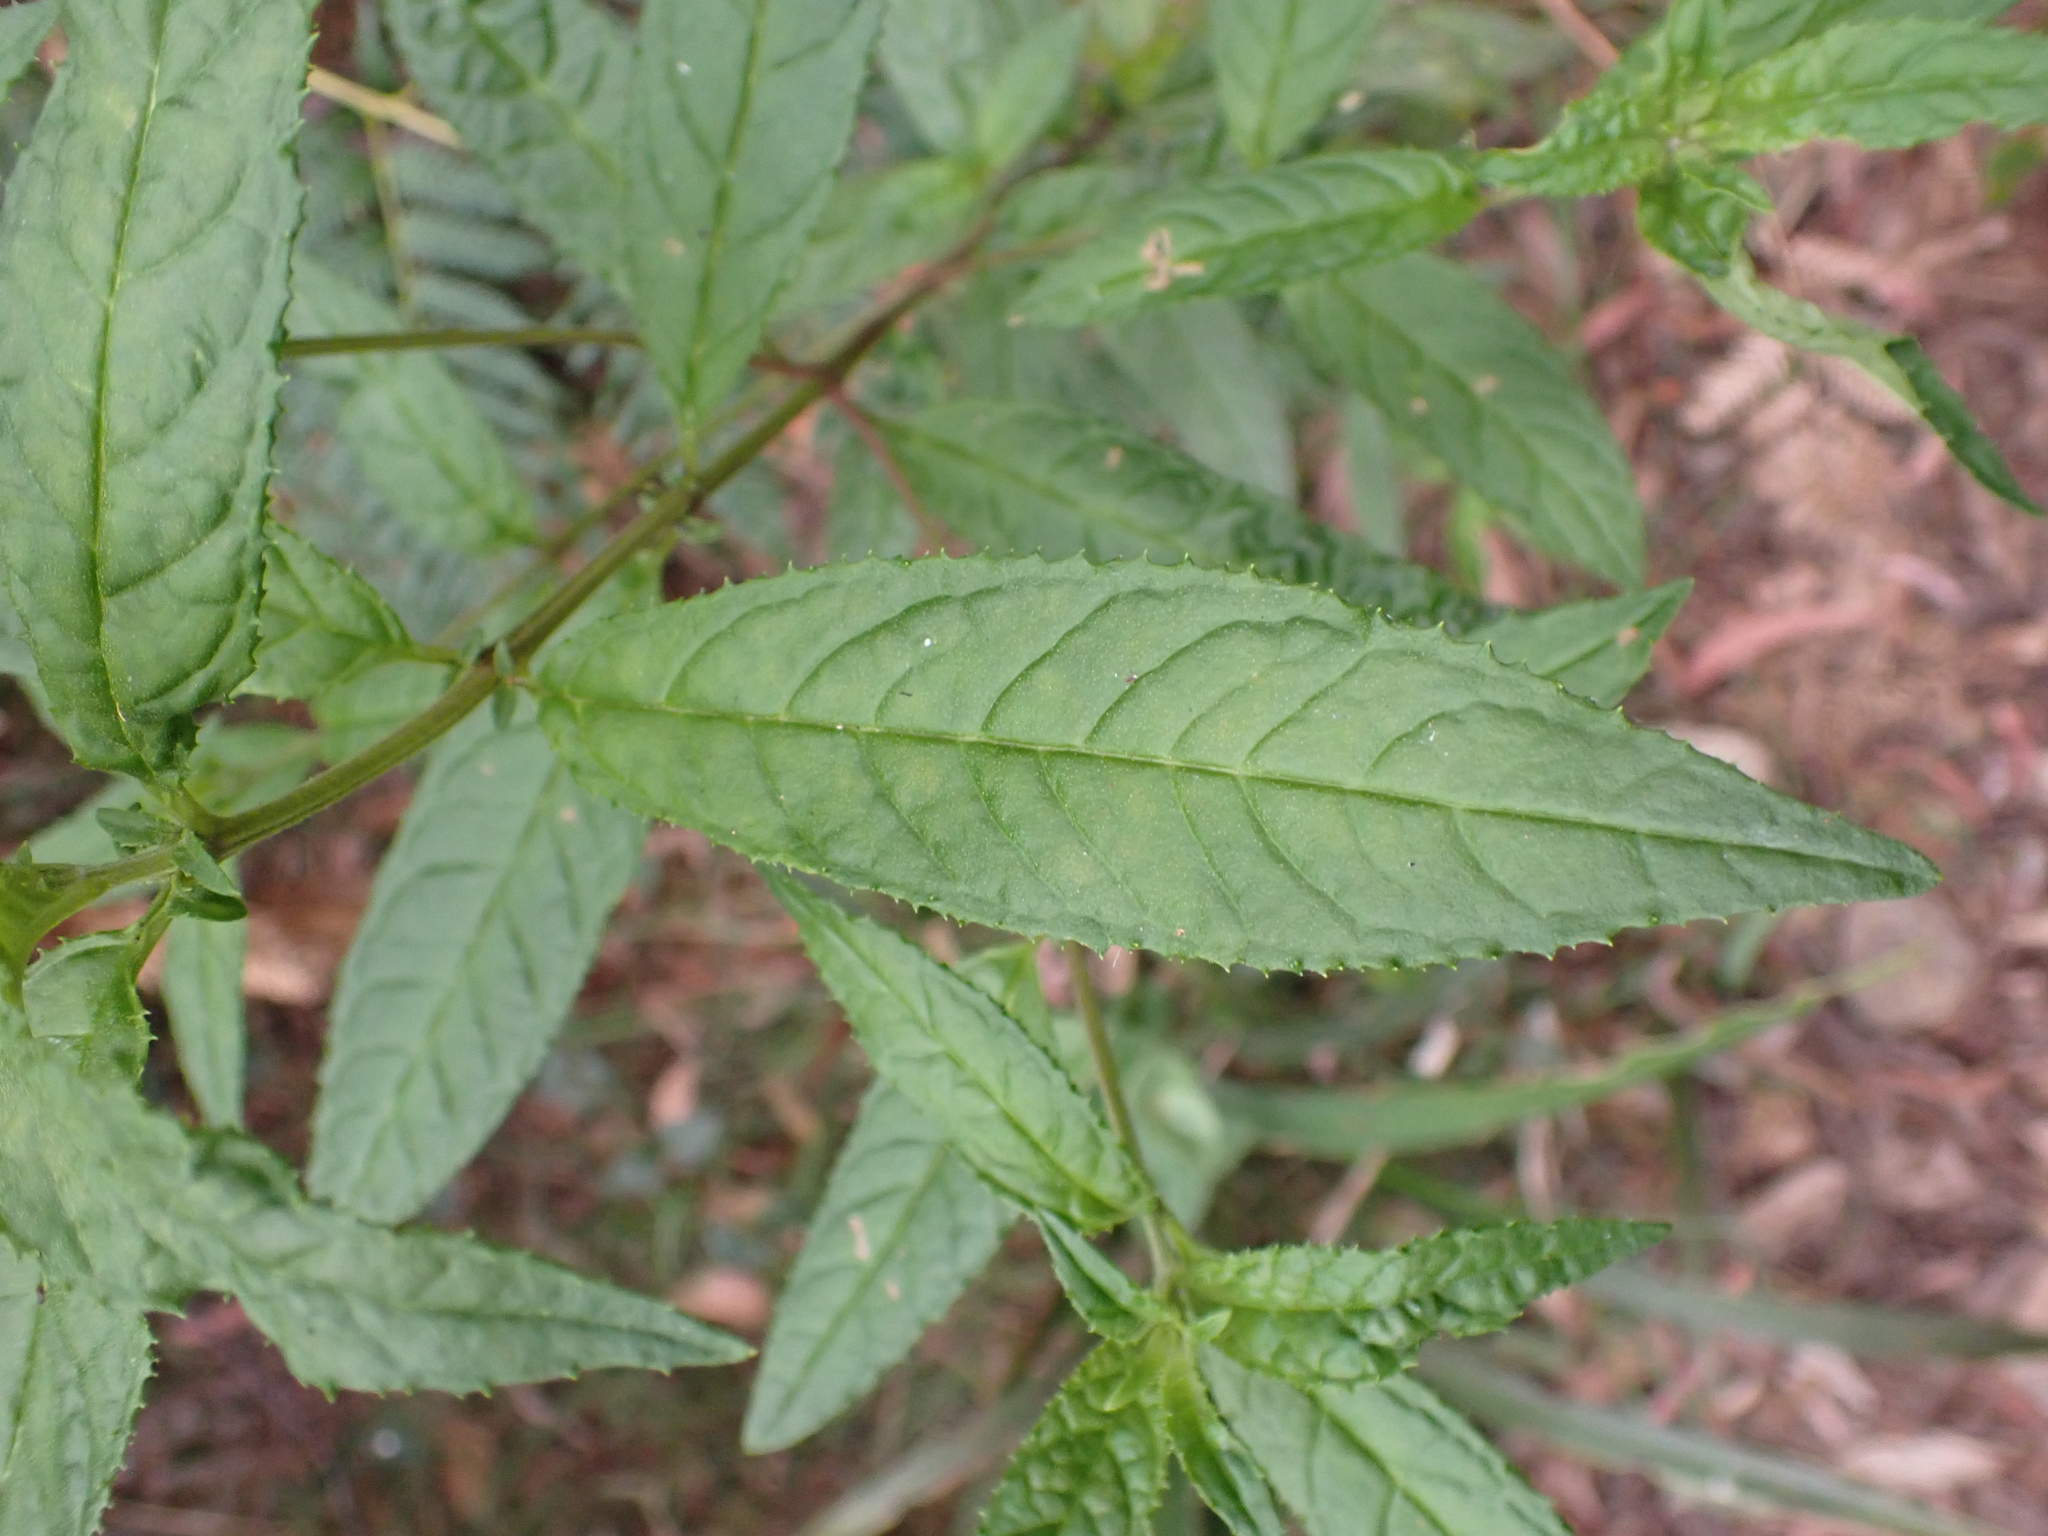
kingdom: Plantae
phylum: Tracheophyta
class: Magnoliopsida
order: Lamiales
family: Lamiaceae
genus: Prostanthera
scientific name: Prostanthera lasianthos
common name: Mountain-lilac
